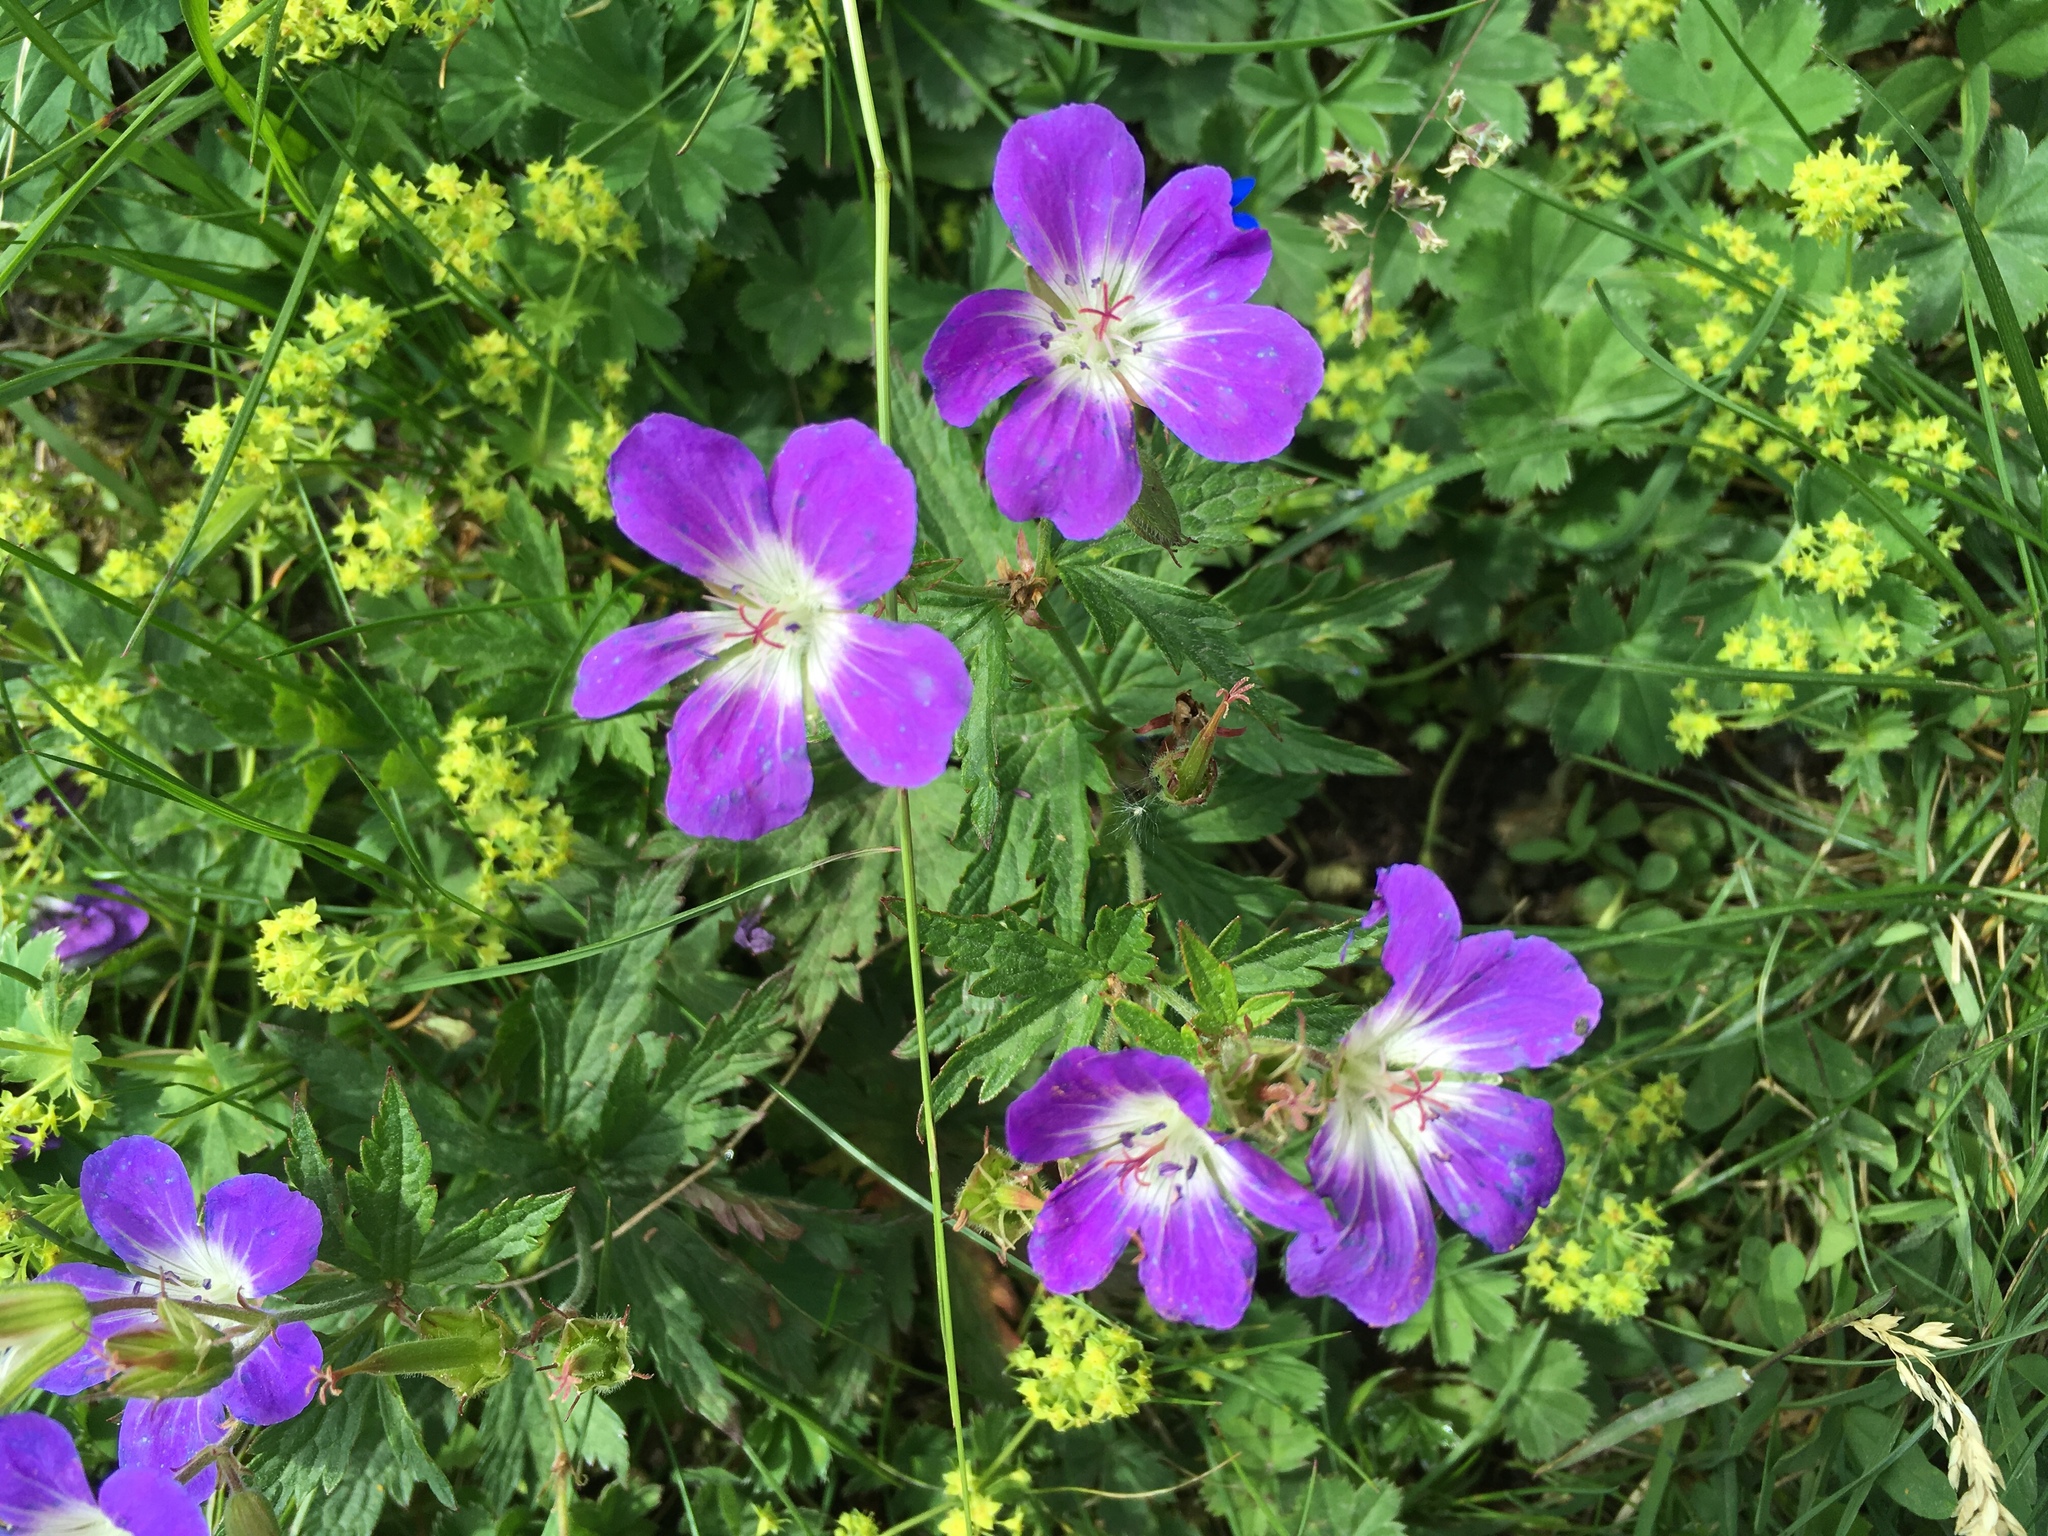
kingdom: Plantae
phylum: Tracheophyta
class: Magnoliopsida
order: Geraniales
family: Geraniaceae
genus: Geranium
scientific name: Geranium sylvaticum
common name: Wood crane's-bill
